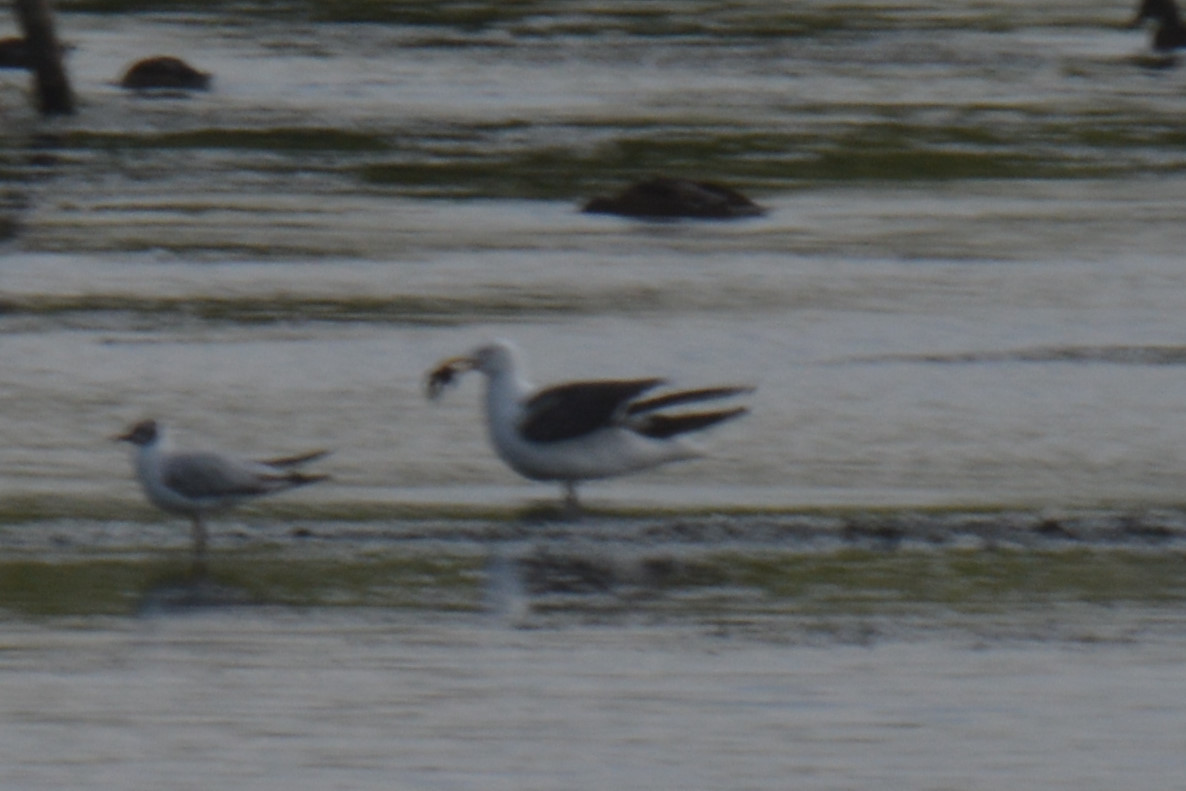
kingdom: Animalia
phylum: Chordata
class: Aves
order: Charadriiformes
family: Laridae
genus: Larus
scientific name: Larus fuscus
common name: Lesser black-backed gull
